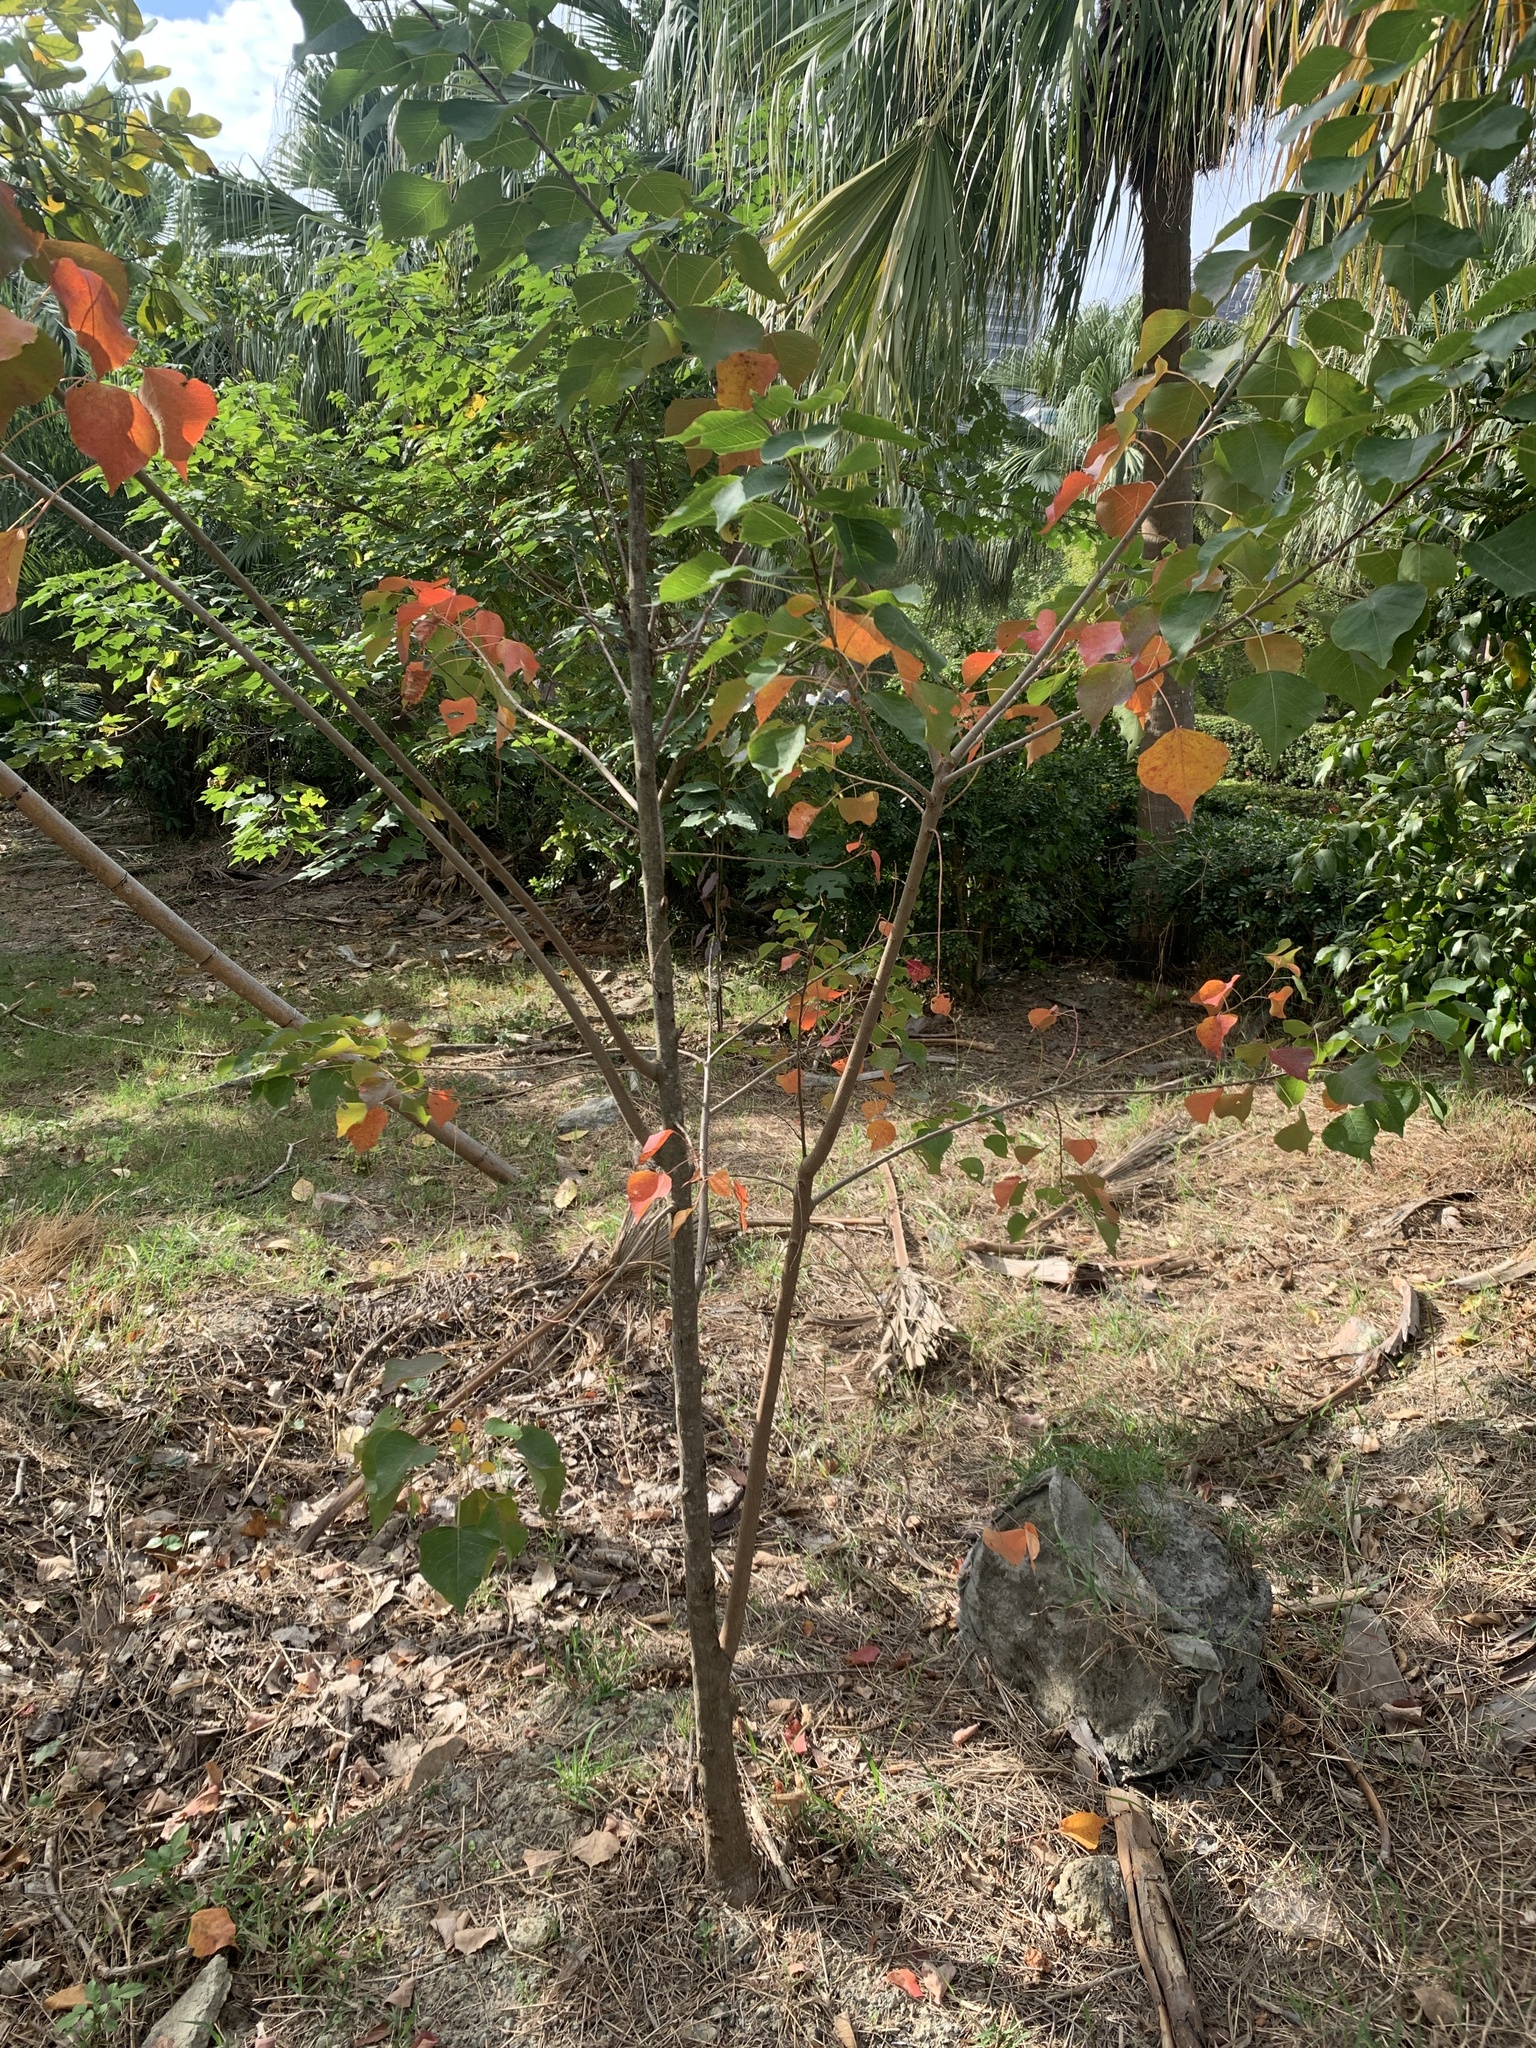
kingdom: Plantae
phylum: Tracheophyta
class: Magnoliopsida
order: Malpighiales
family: Euphorbiaceae
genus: Triadica
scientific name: Triadica sebifera
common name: Chinese tallow
